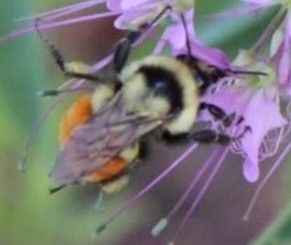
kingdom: Animalia
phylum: Arthropoda
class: Insecta
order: Hymenoptera
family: Apidae
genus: Bombus
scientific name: Bombus huntii
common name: Hunt bumble bee
